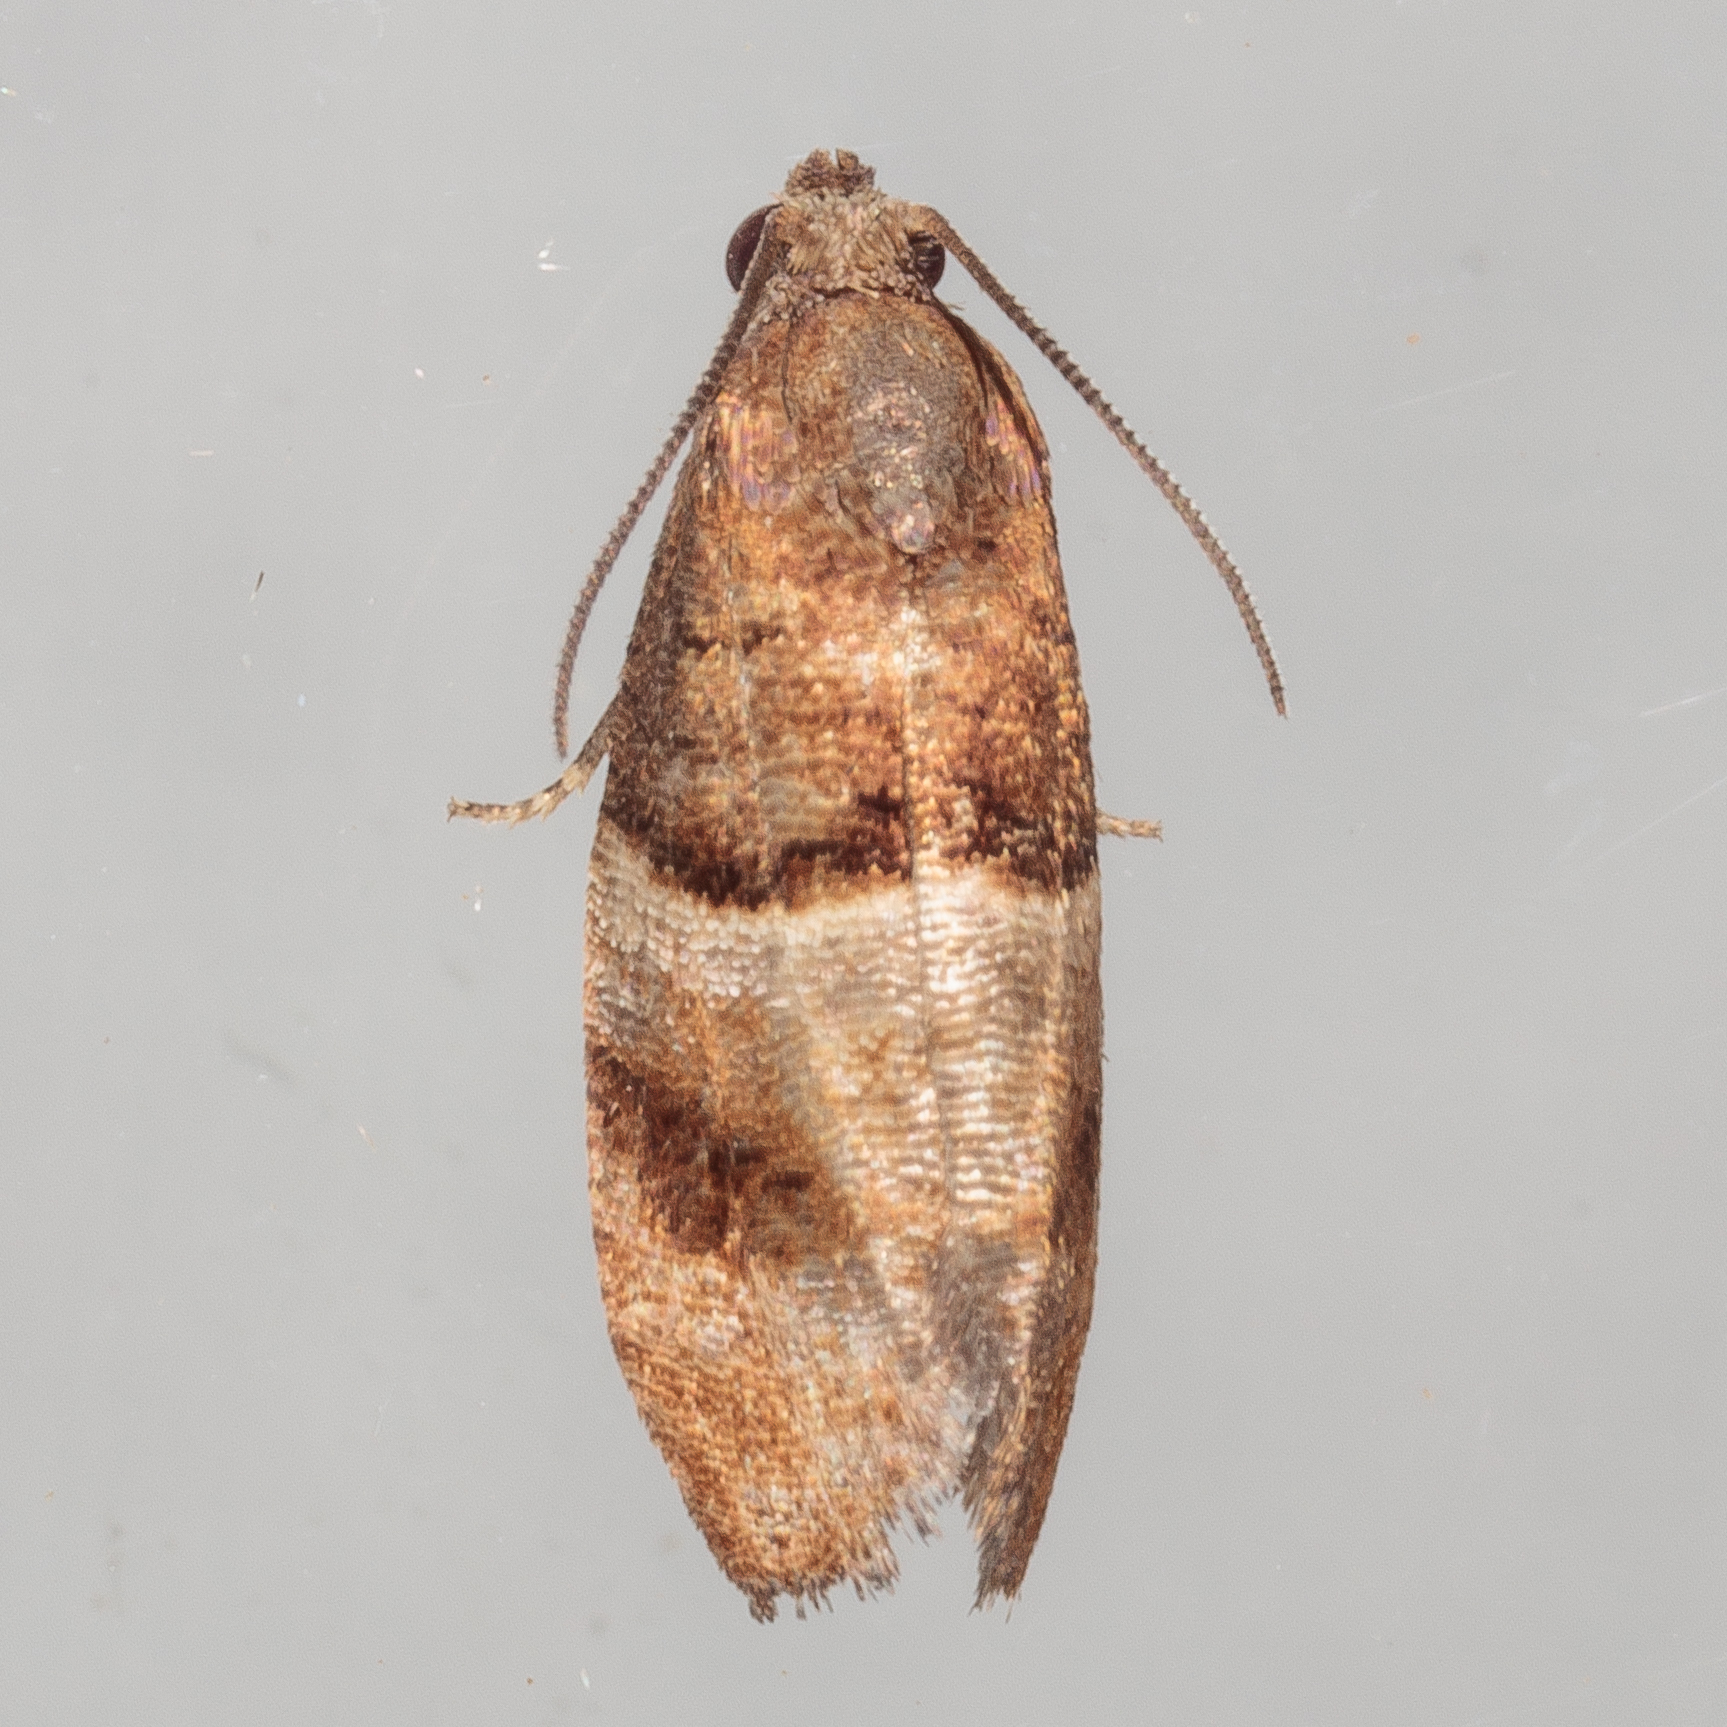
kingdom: Animalia
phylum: Arthropoda
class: Insecta
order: Lepidoptera
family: Tortricidae
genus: Larisa
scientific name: Larisa subsolana
